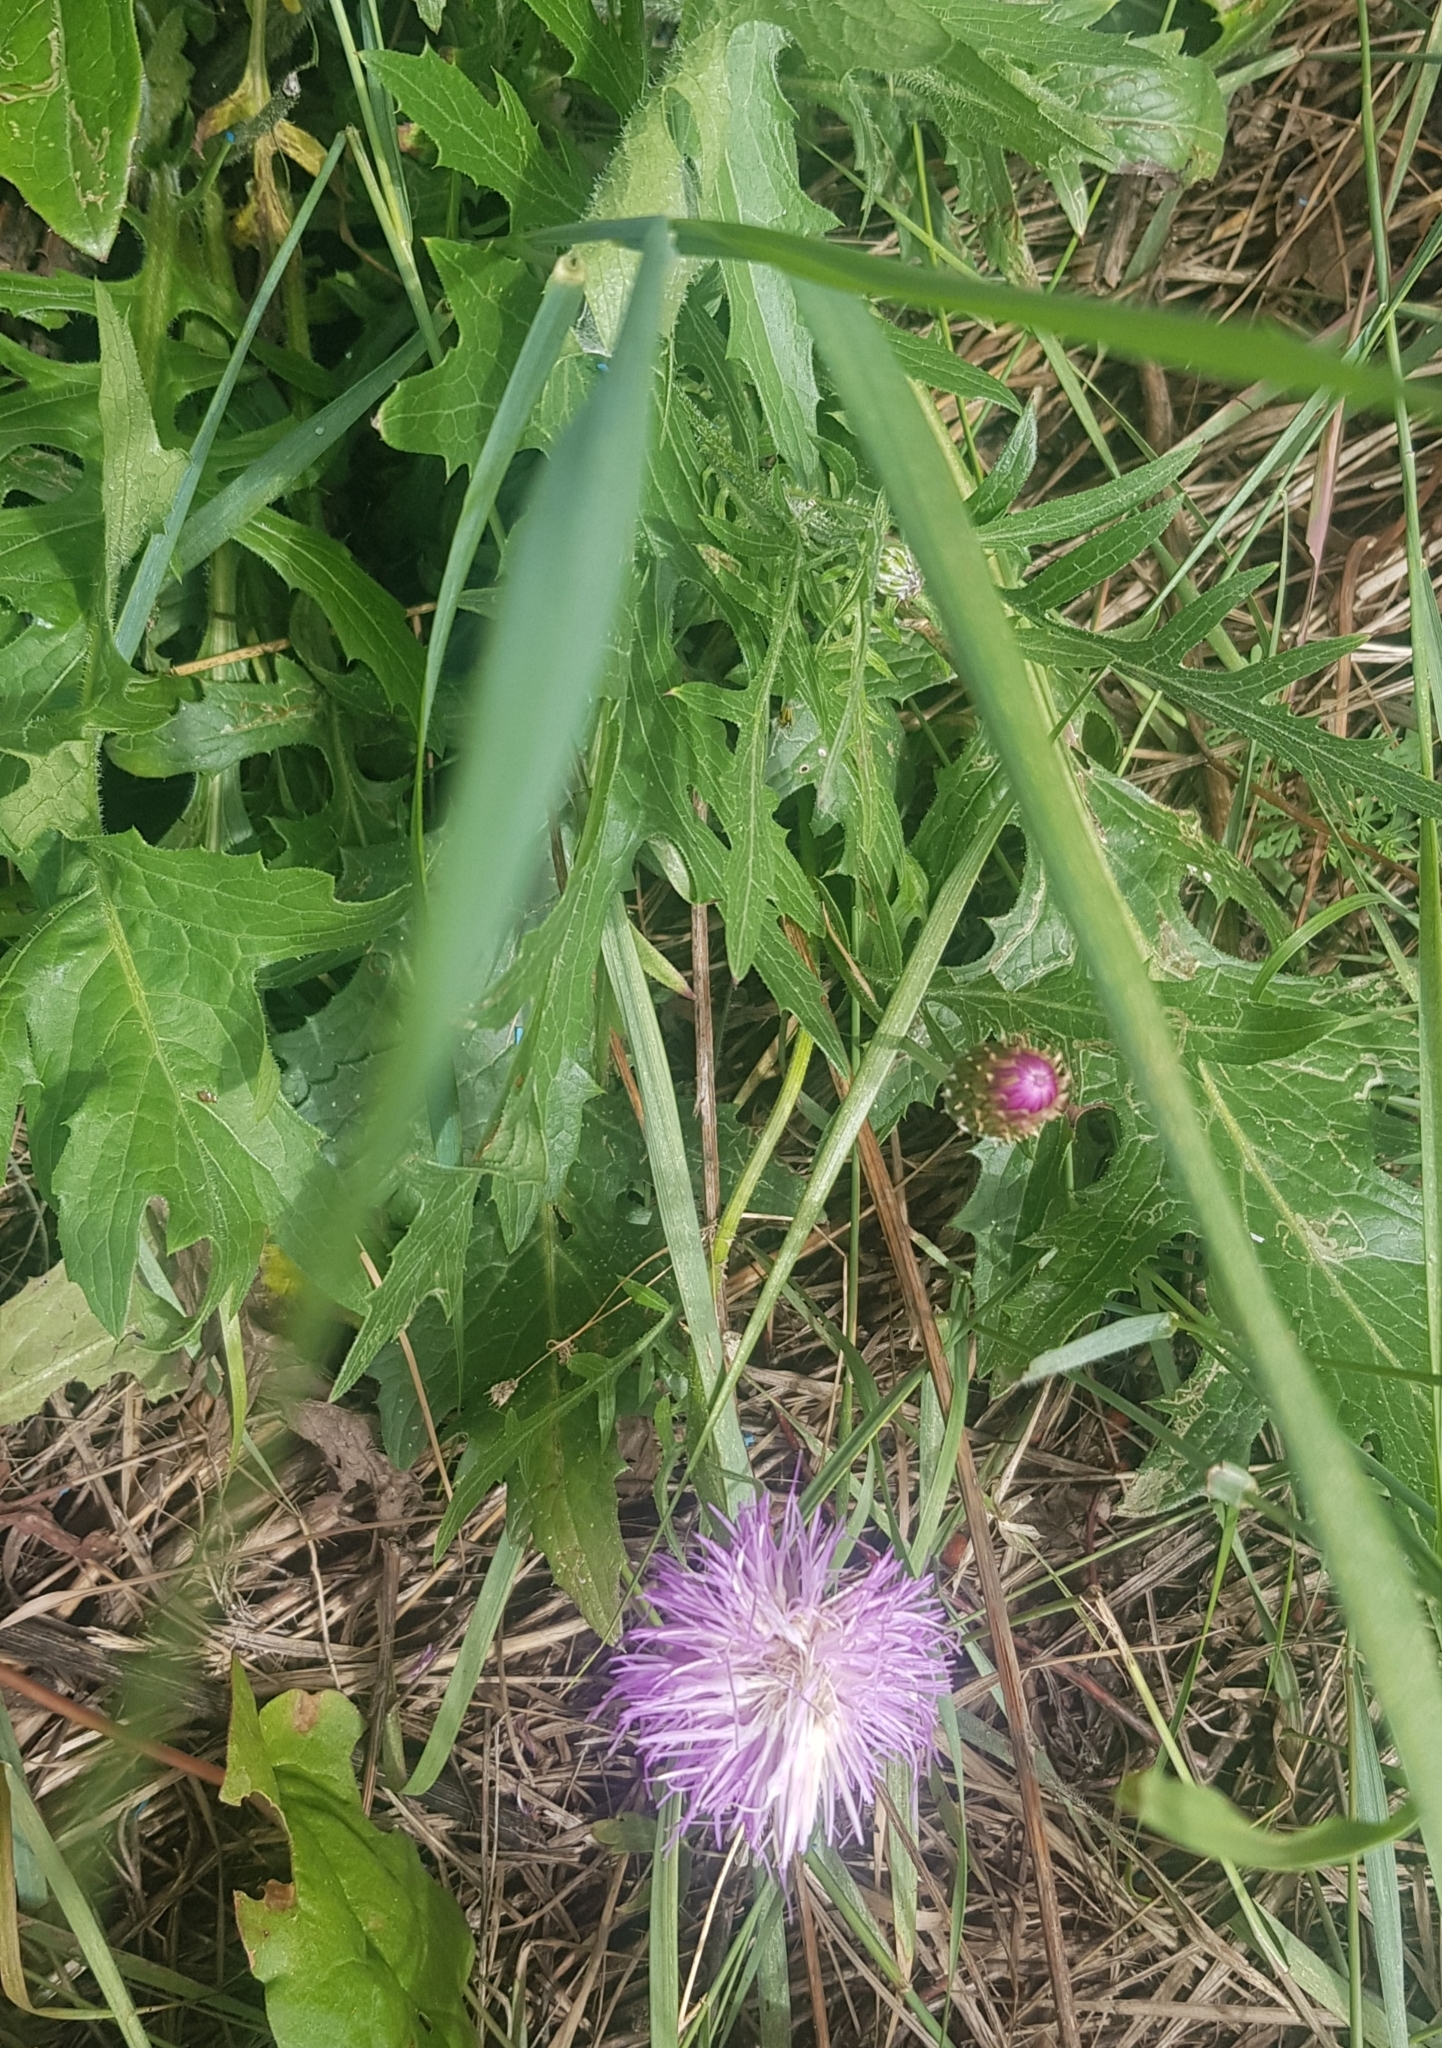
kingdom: Plantae
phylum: Tracheophyta
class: Magnoliopsida
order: Asterales
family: Asteraceae
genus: Klasea
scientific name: Klasea centauroides
